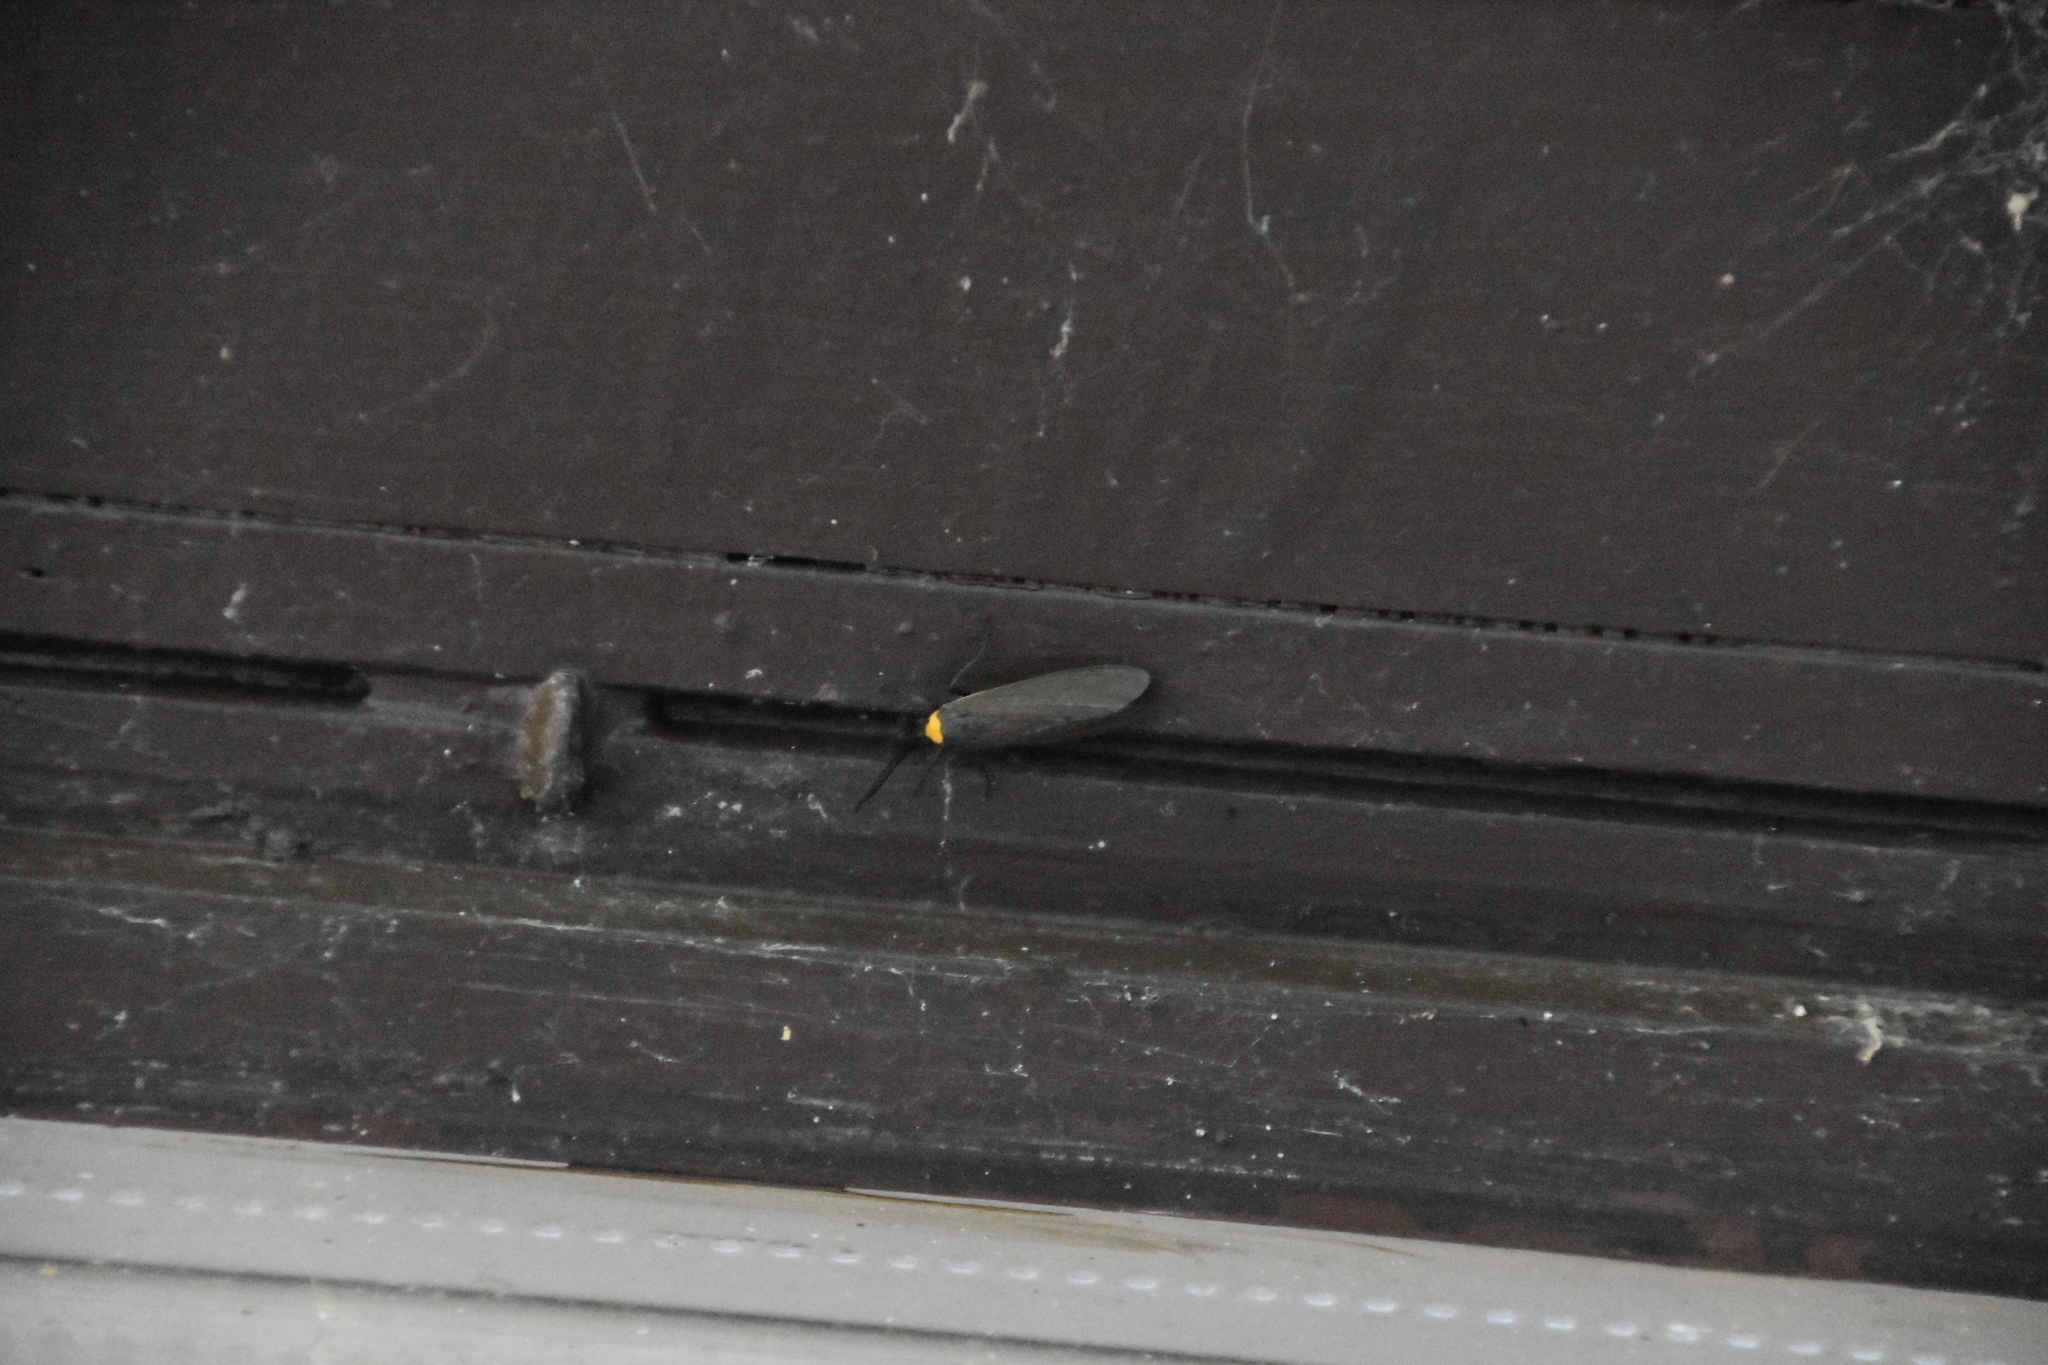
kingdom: Animalia
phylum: Arthropoda
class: Insecta
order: Lepidoptera
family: Erebidae
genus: Cisseps
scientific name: Cisseps fulvicollis
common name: Yellow-collared scape moth
